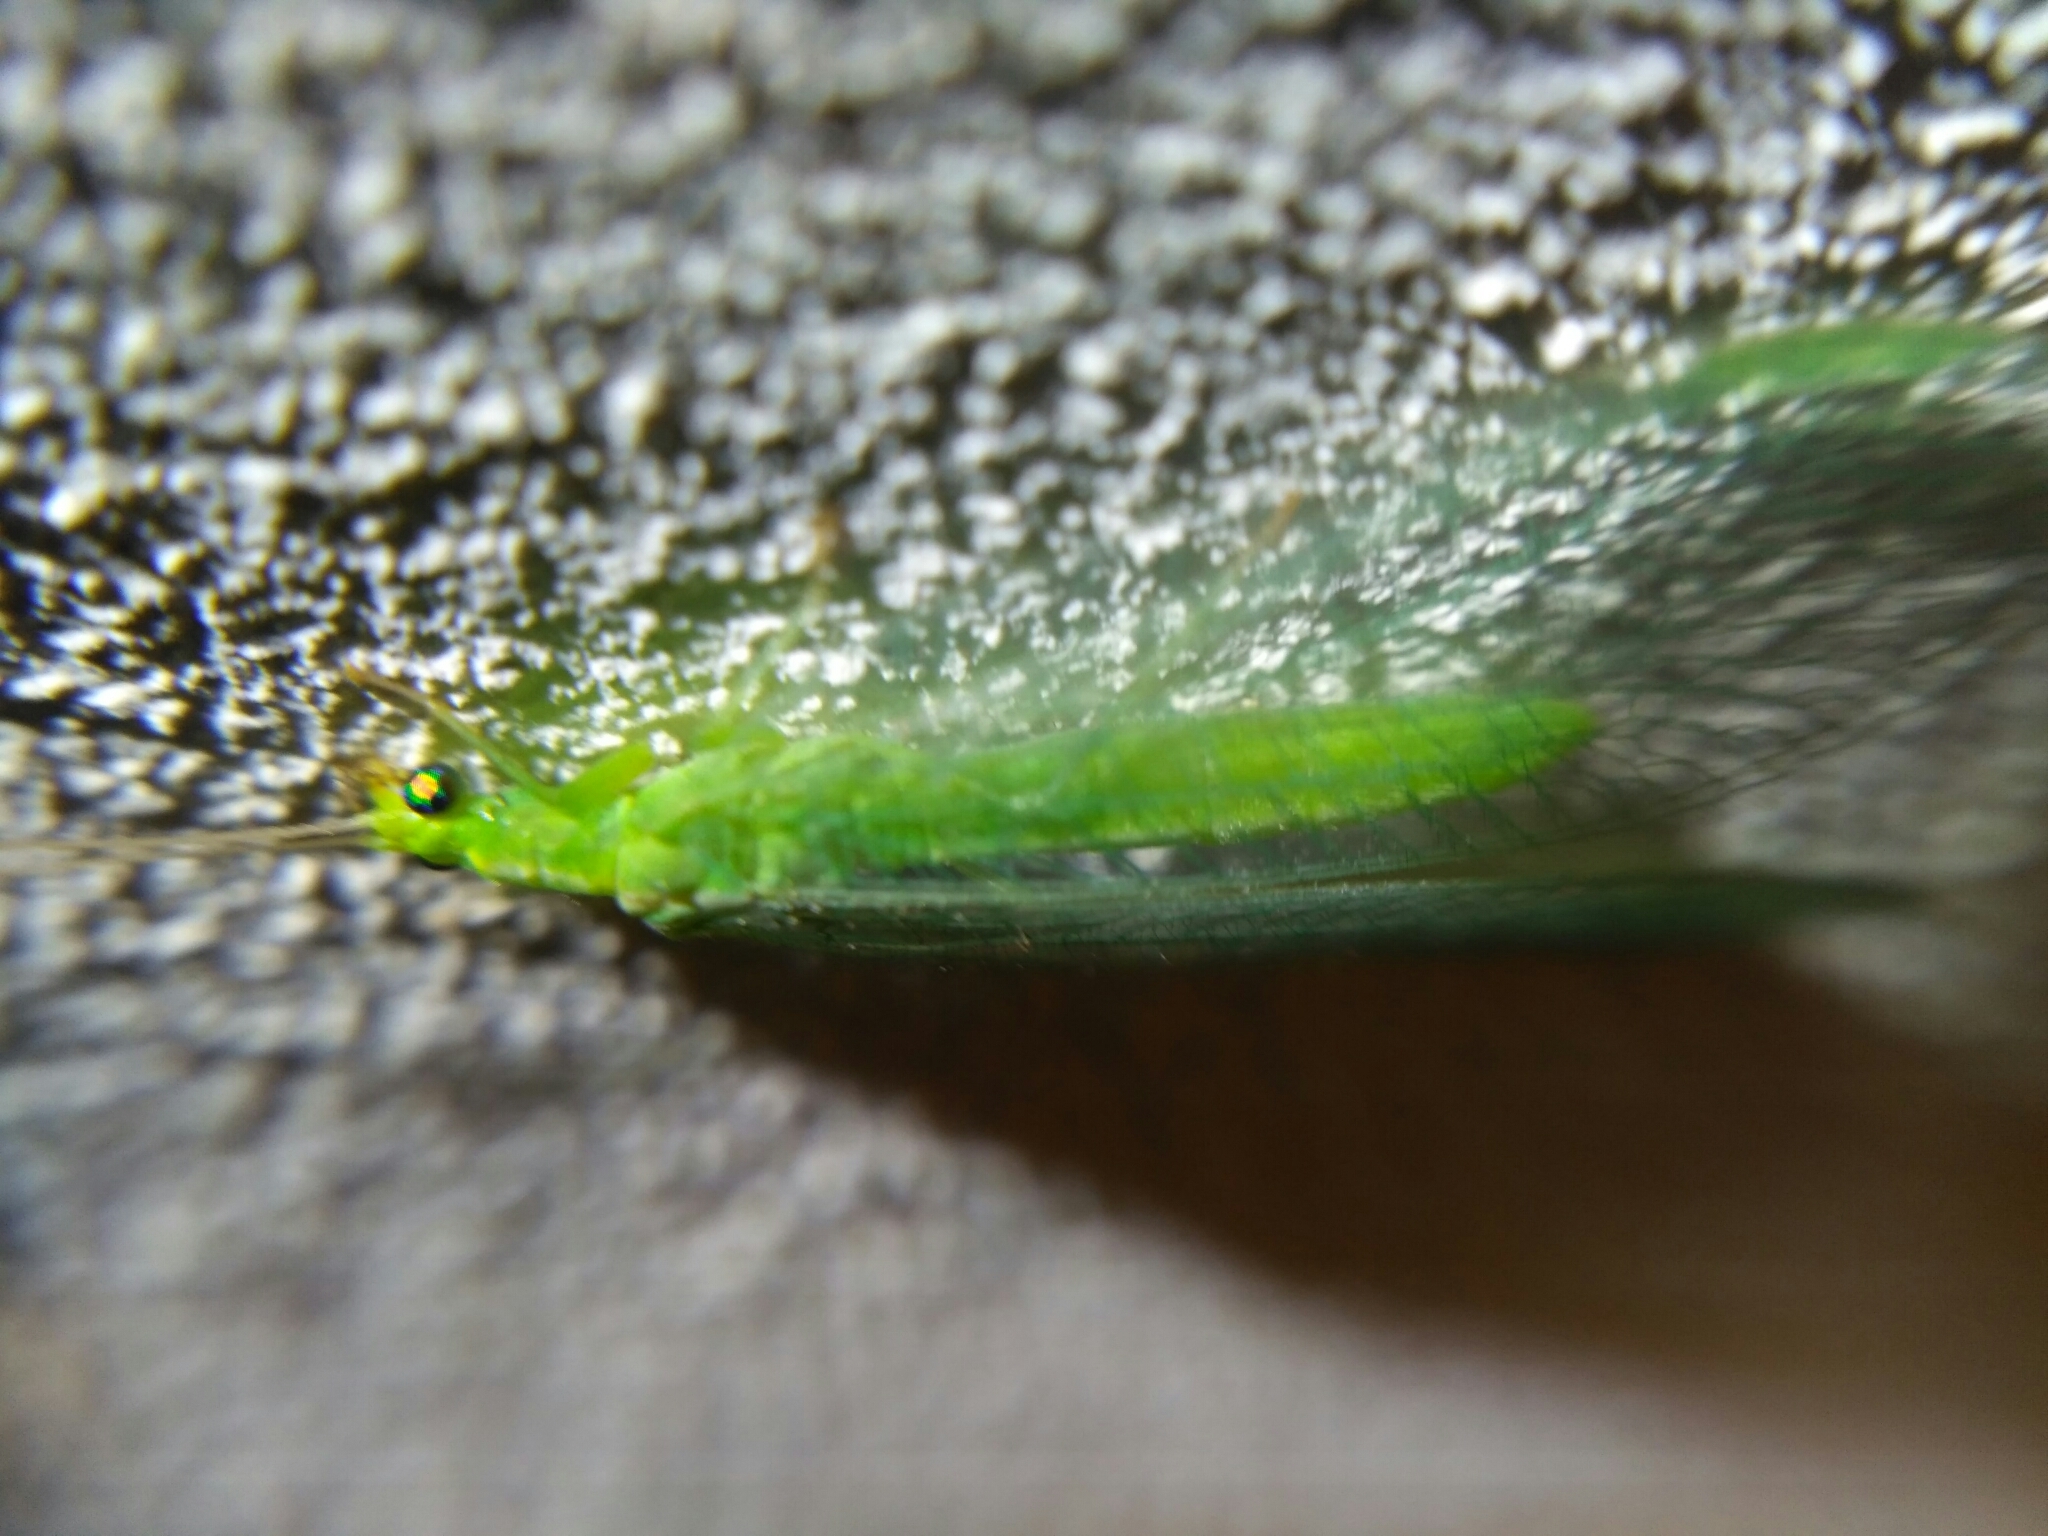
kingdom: Animalia
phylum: Arthropoda
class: Insecta
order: Neuroptera
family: Chrysopidae
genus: Chrysoperla
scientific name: Chrysoperla
